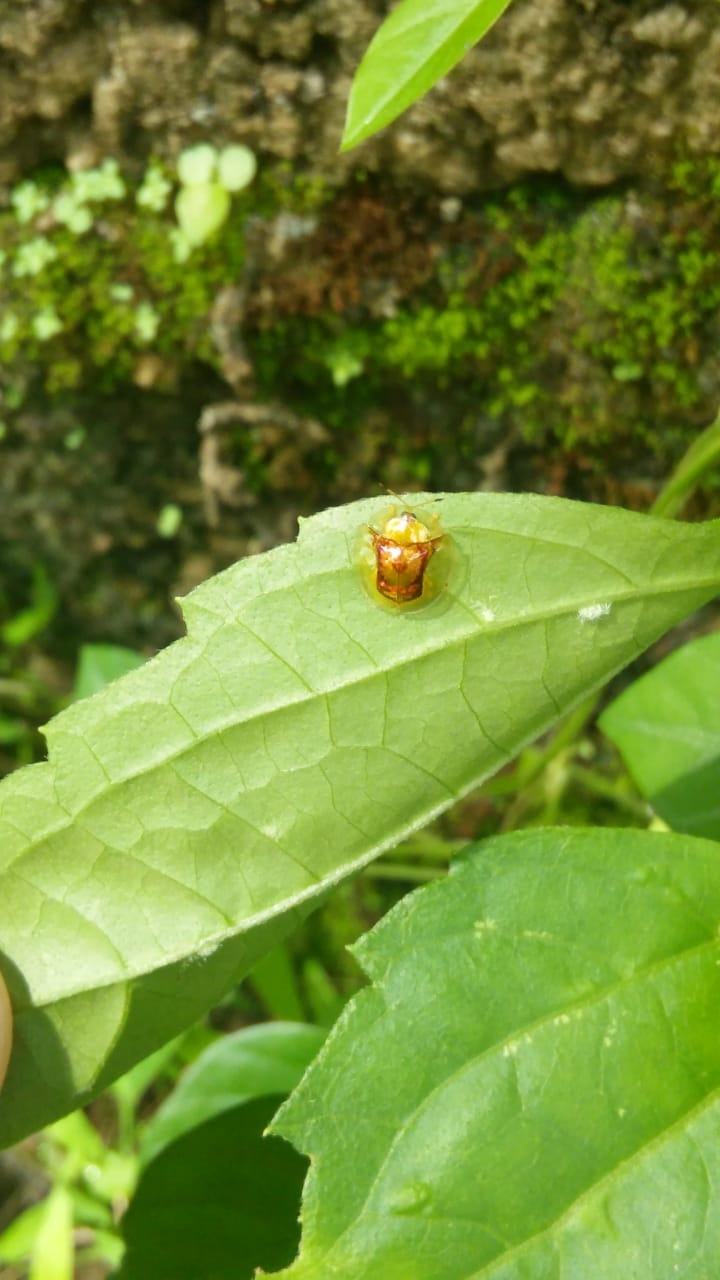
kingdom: Animalia
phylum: Arthropoda
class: Insecta
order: Coleoptera
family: Chrysomelidae
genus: Aspidimorpha
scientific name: Aspidimorpha furcata
